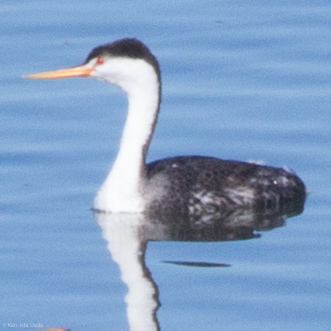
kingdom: Animalia
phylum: Chordata
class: Aves
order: Podicipediformes
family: Podicipedidae
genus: Aechmophorus
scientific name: Aechmophorus clarkii
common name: Clark's grebe
